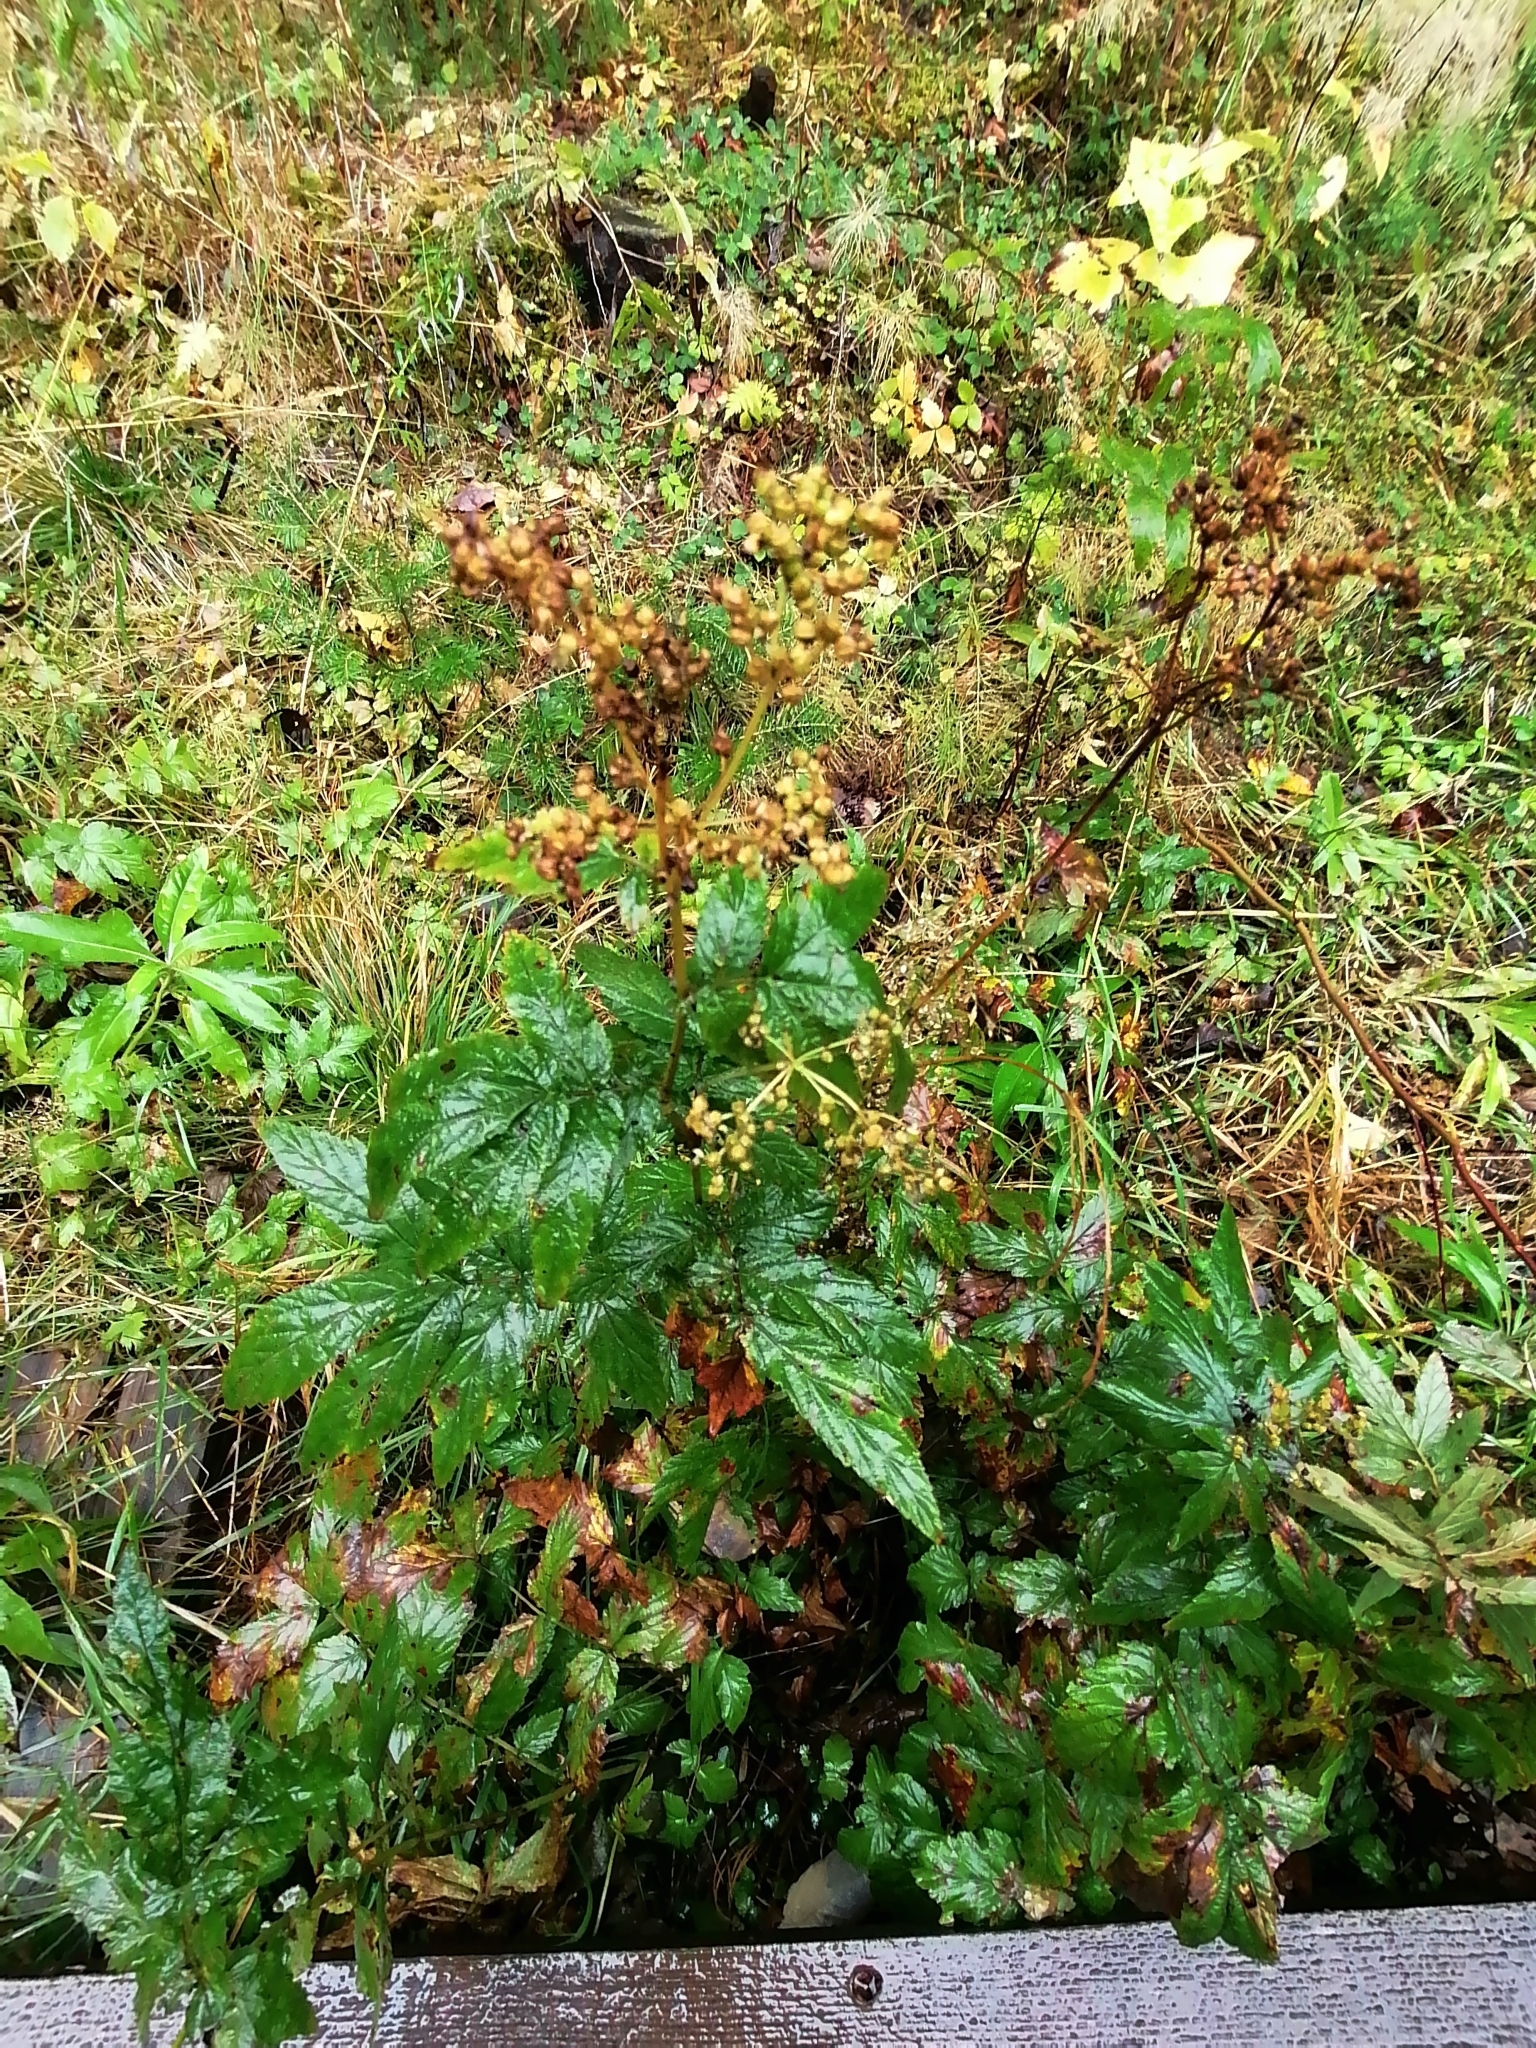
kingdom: Plantae
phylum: Tracheophyta
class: Magnoliopsida
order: Rosales
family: Rosaceae
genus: Filipendula
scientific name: Filipendula ulmaria
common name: Meadowsweet
